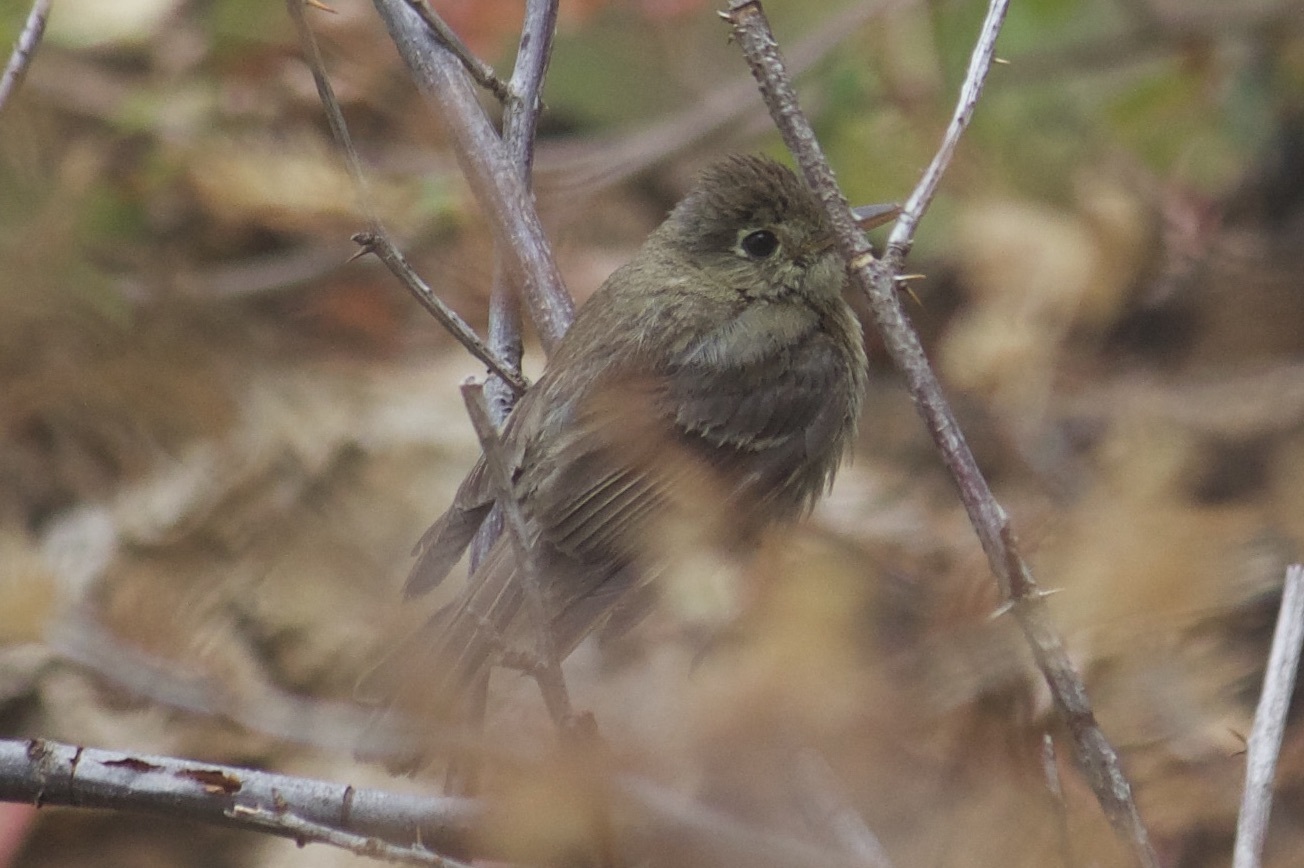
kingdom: Animalia
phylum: Chordata
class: Aves
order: Passeriformes
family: Tyrannidae
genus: Empidonax
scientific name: Empidonax difficilis
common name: Pacific-slope flycatcher
